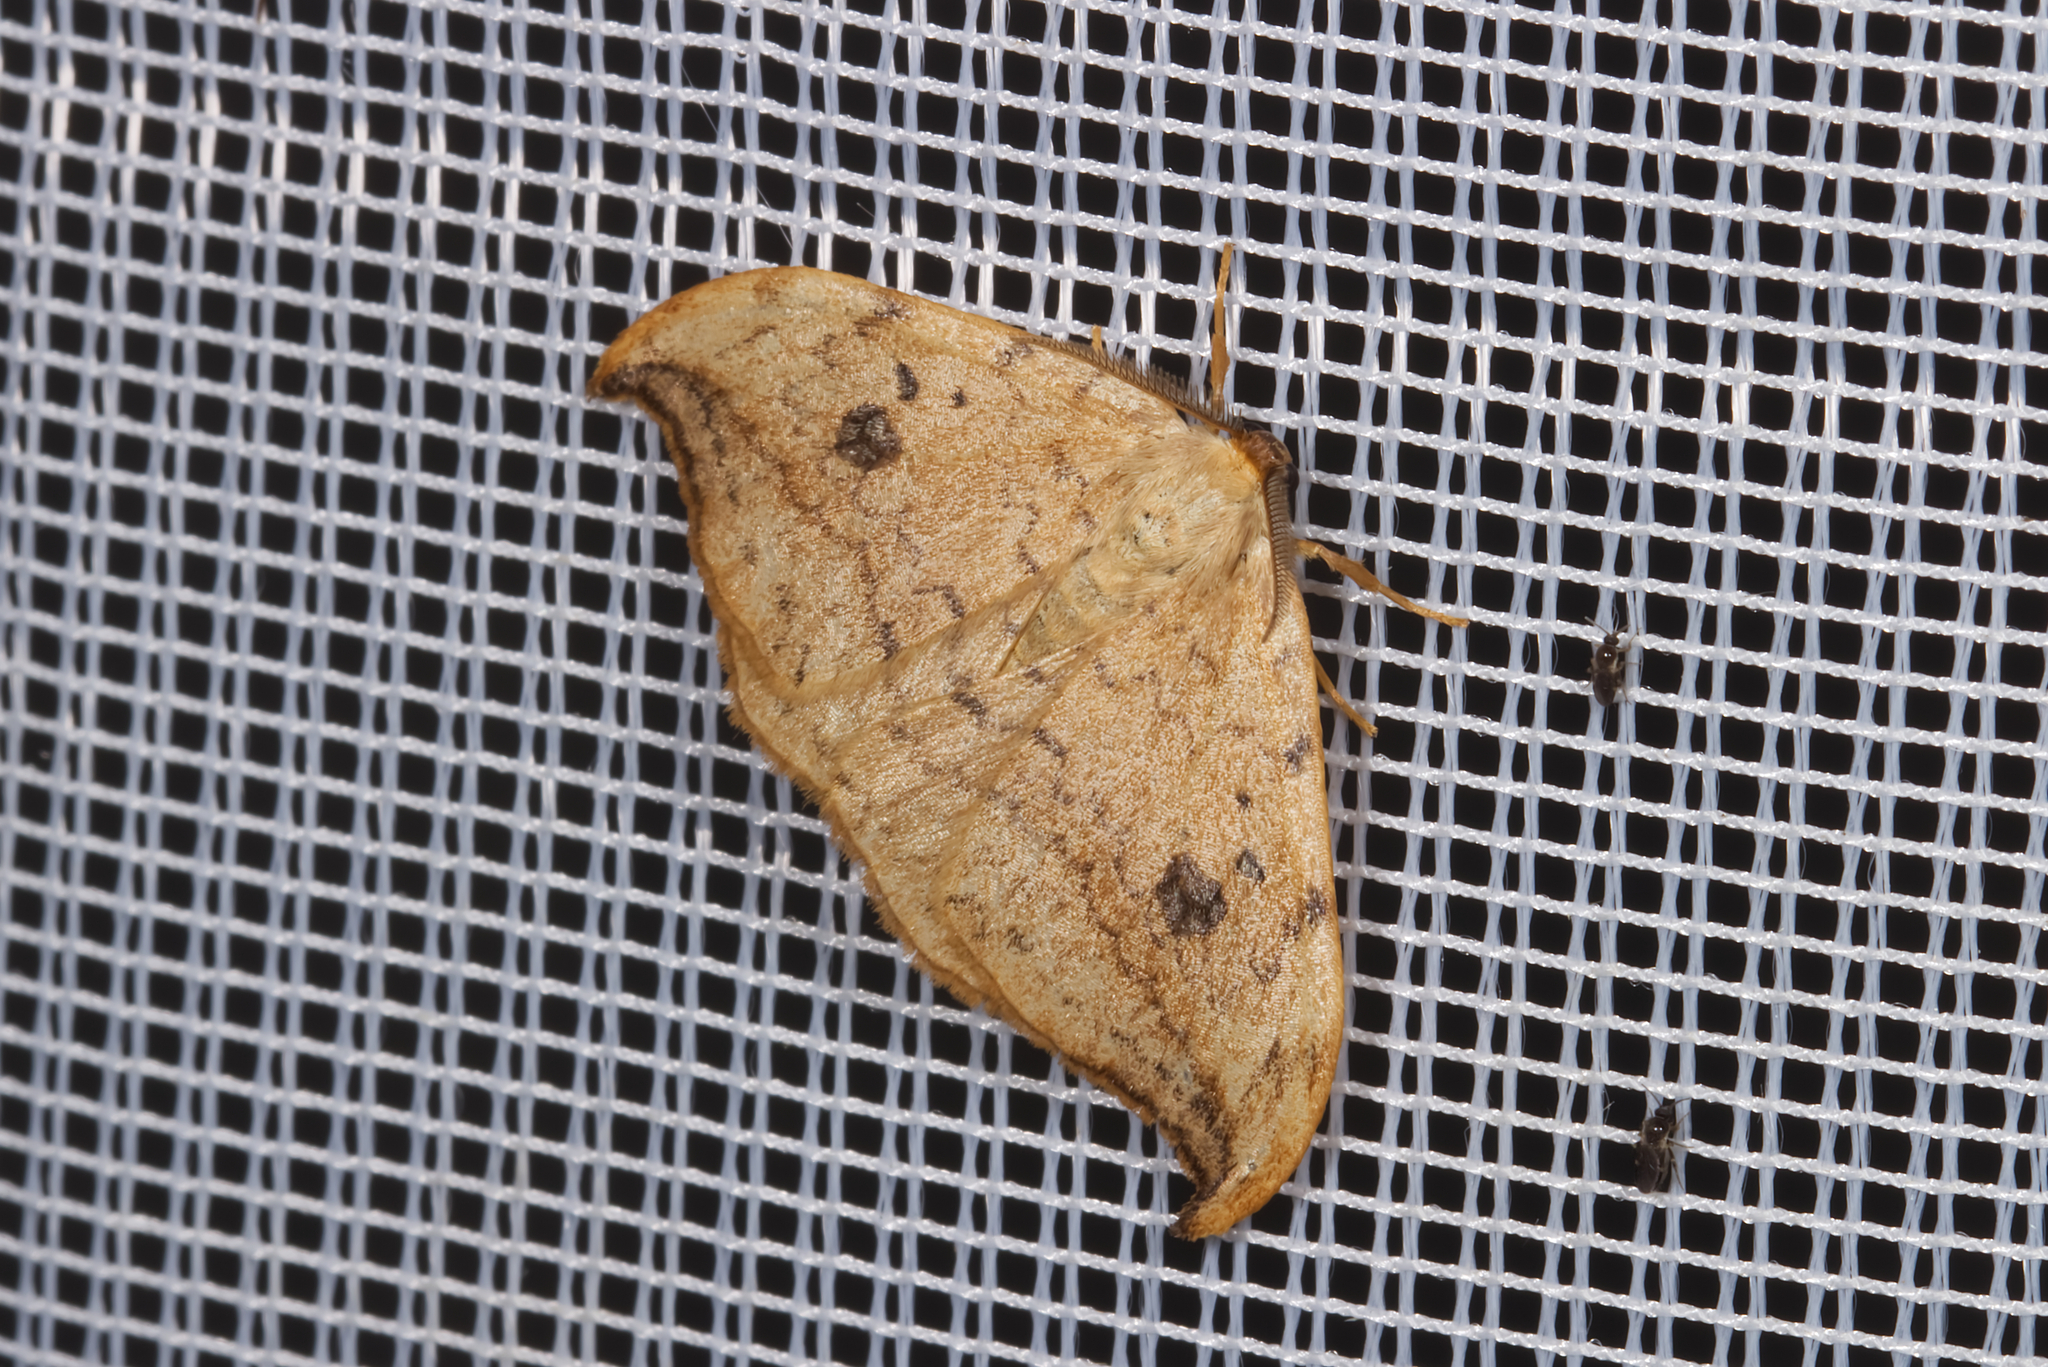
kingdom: Animalia
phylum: Arthropoda
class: Insecta
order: Lepidoptera
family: Drepanidae
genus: Drepana
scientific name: Drepana falcataria
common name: Pebble hook-tip
